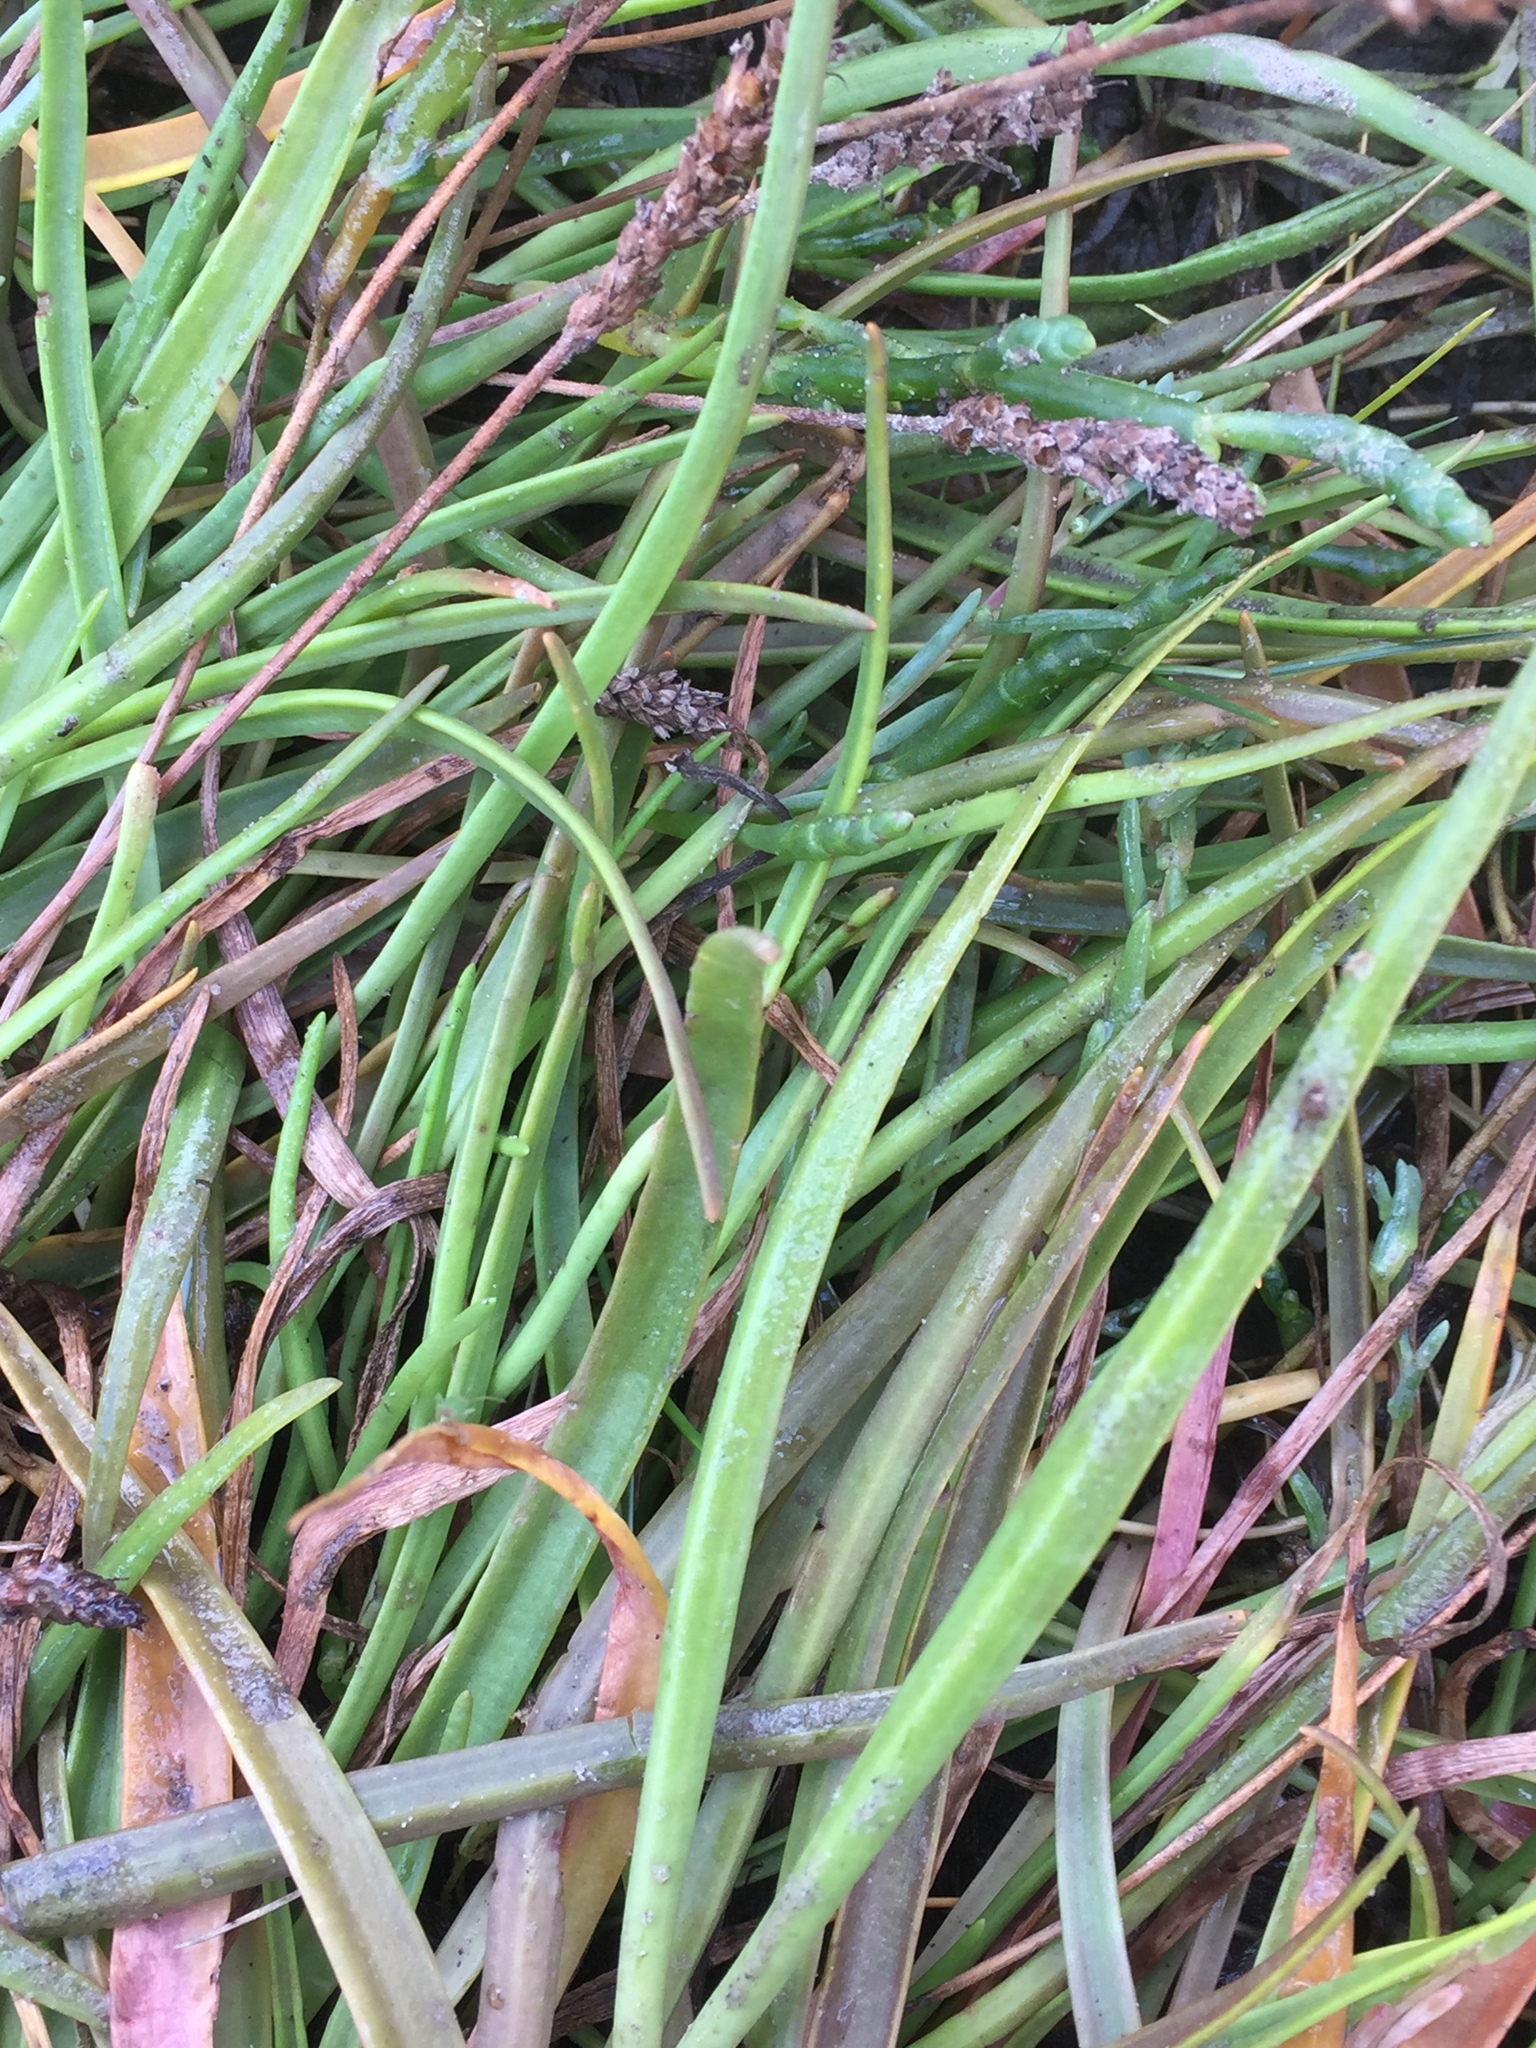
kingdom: Plantae
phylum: Tracheophyta
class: Magnoliopsida
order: Lamiales
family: Plantaginaceae
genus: Plantago
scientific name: Plantago maritima
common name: Sea plantain
